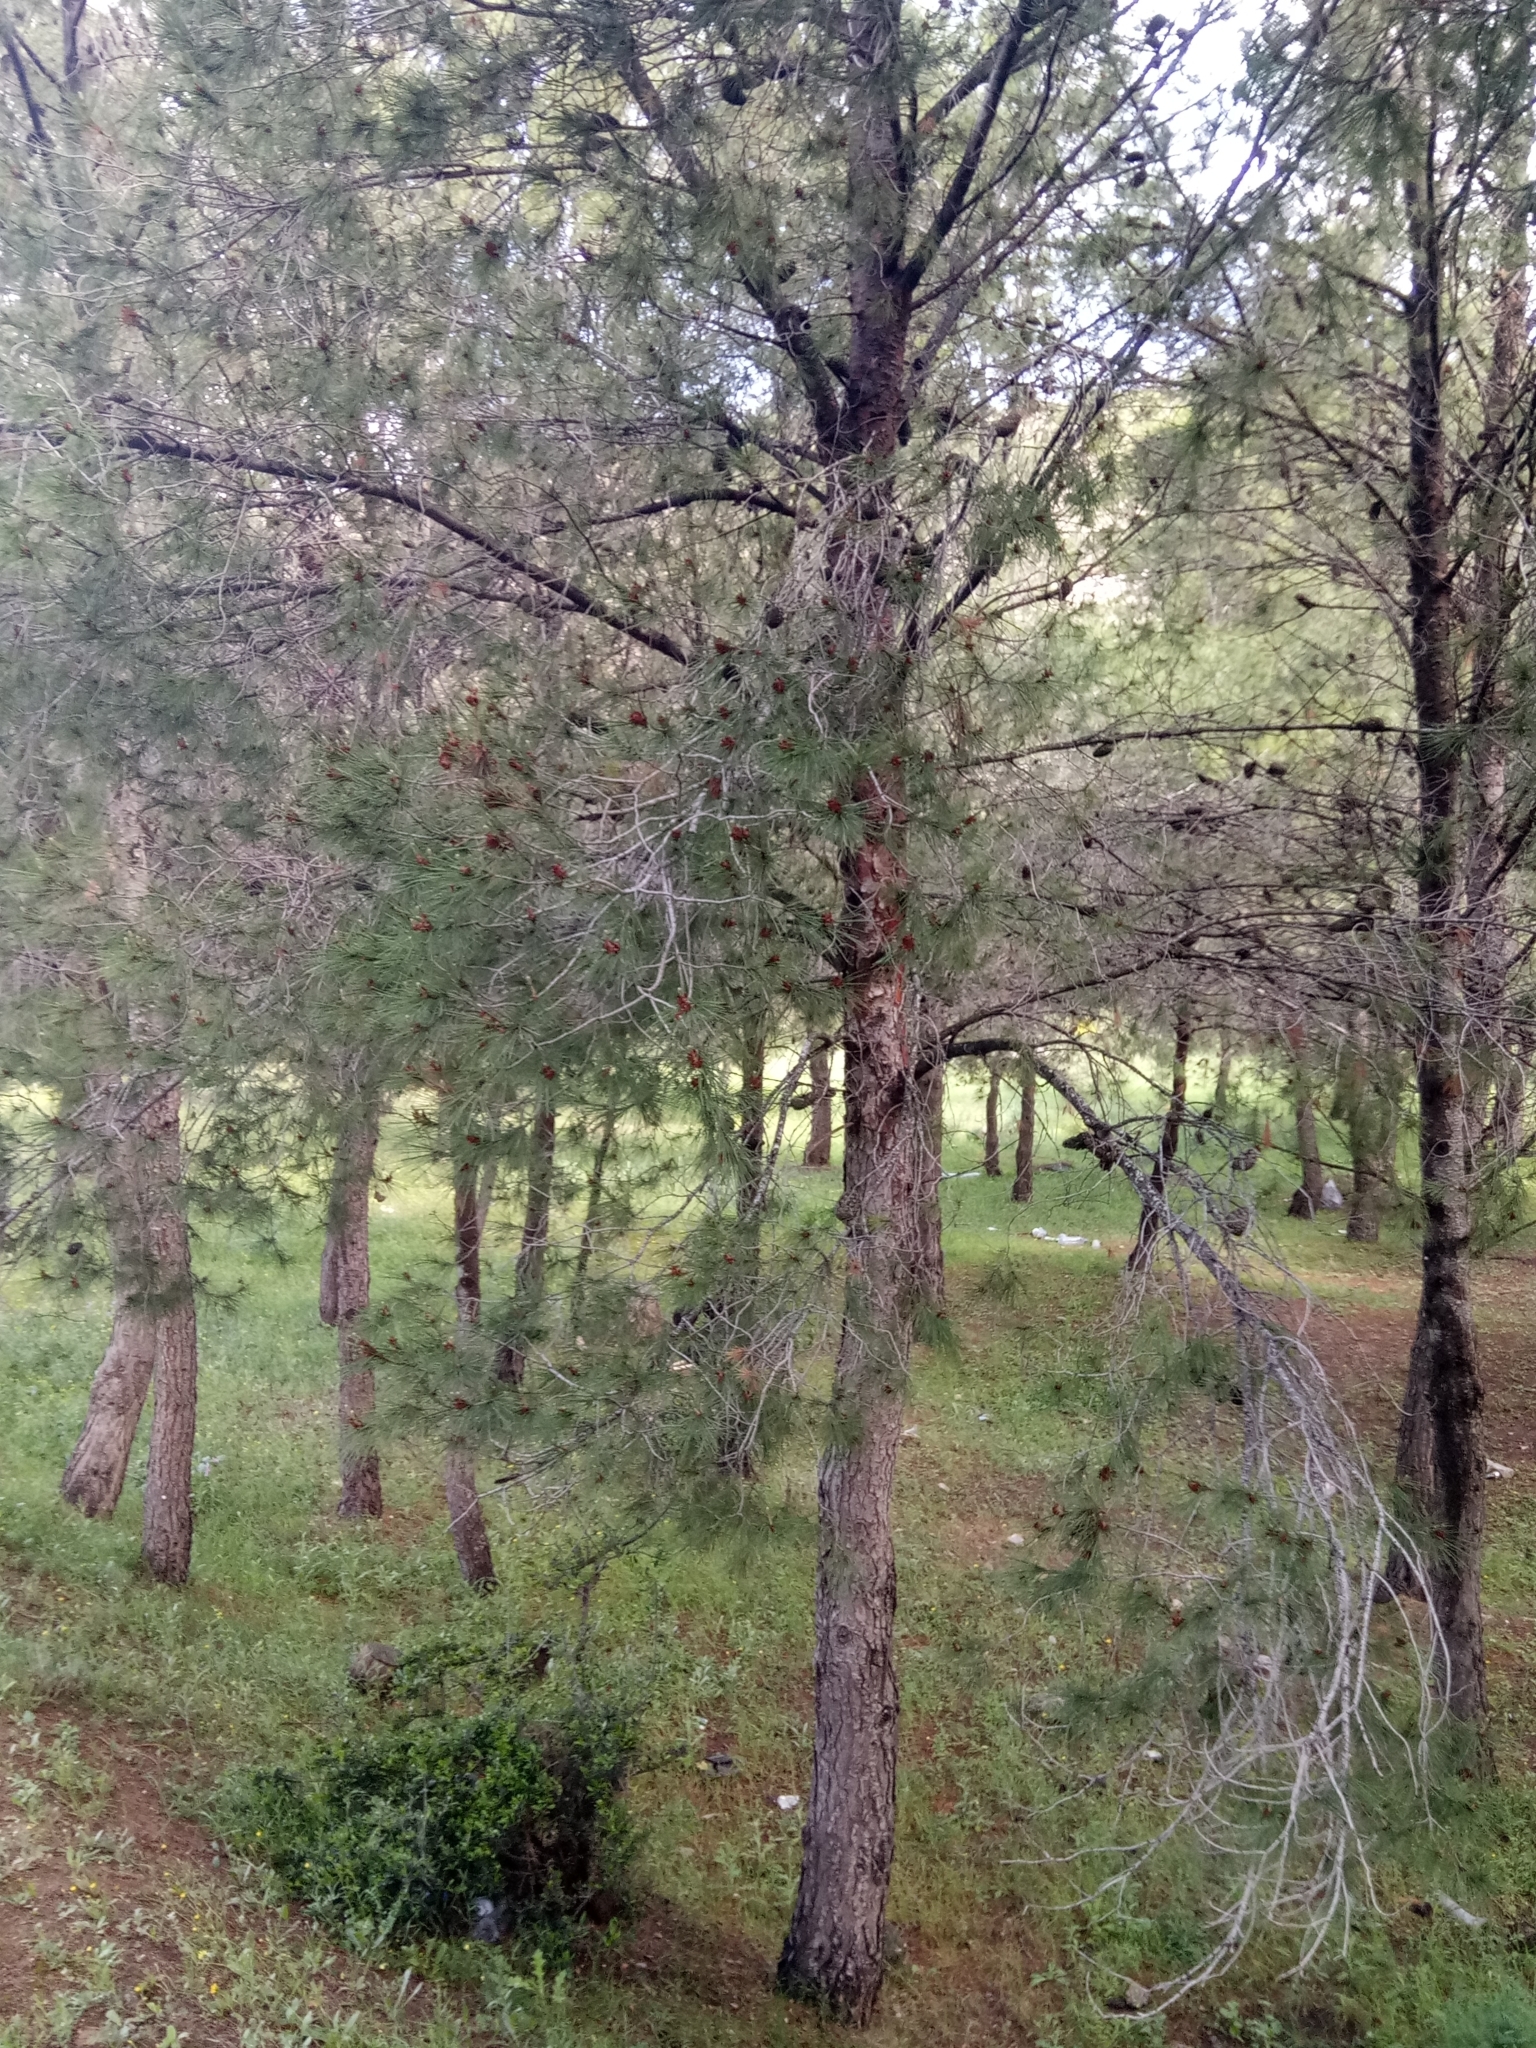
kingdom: Plantae
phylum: Tracheophyta
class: Pinopsida
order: Pinales
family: Pinaceae
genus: Pinus
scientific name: Pinus halepensis
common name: Aleppo pine
